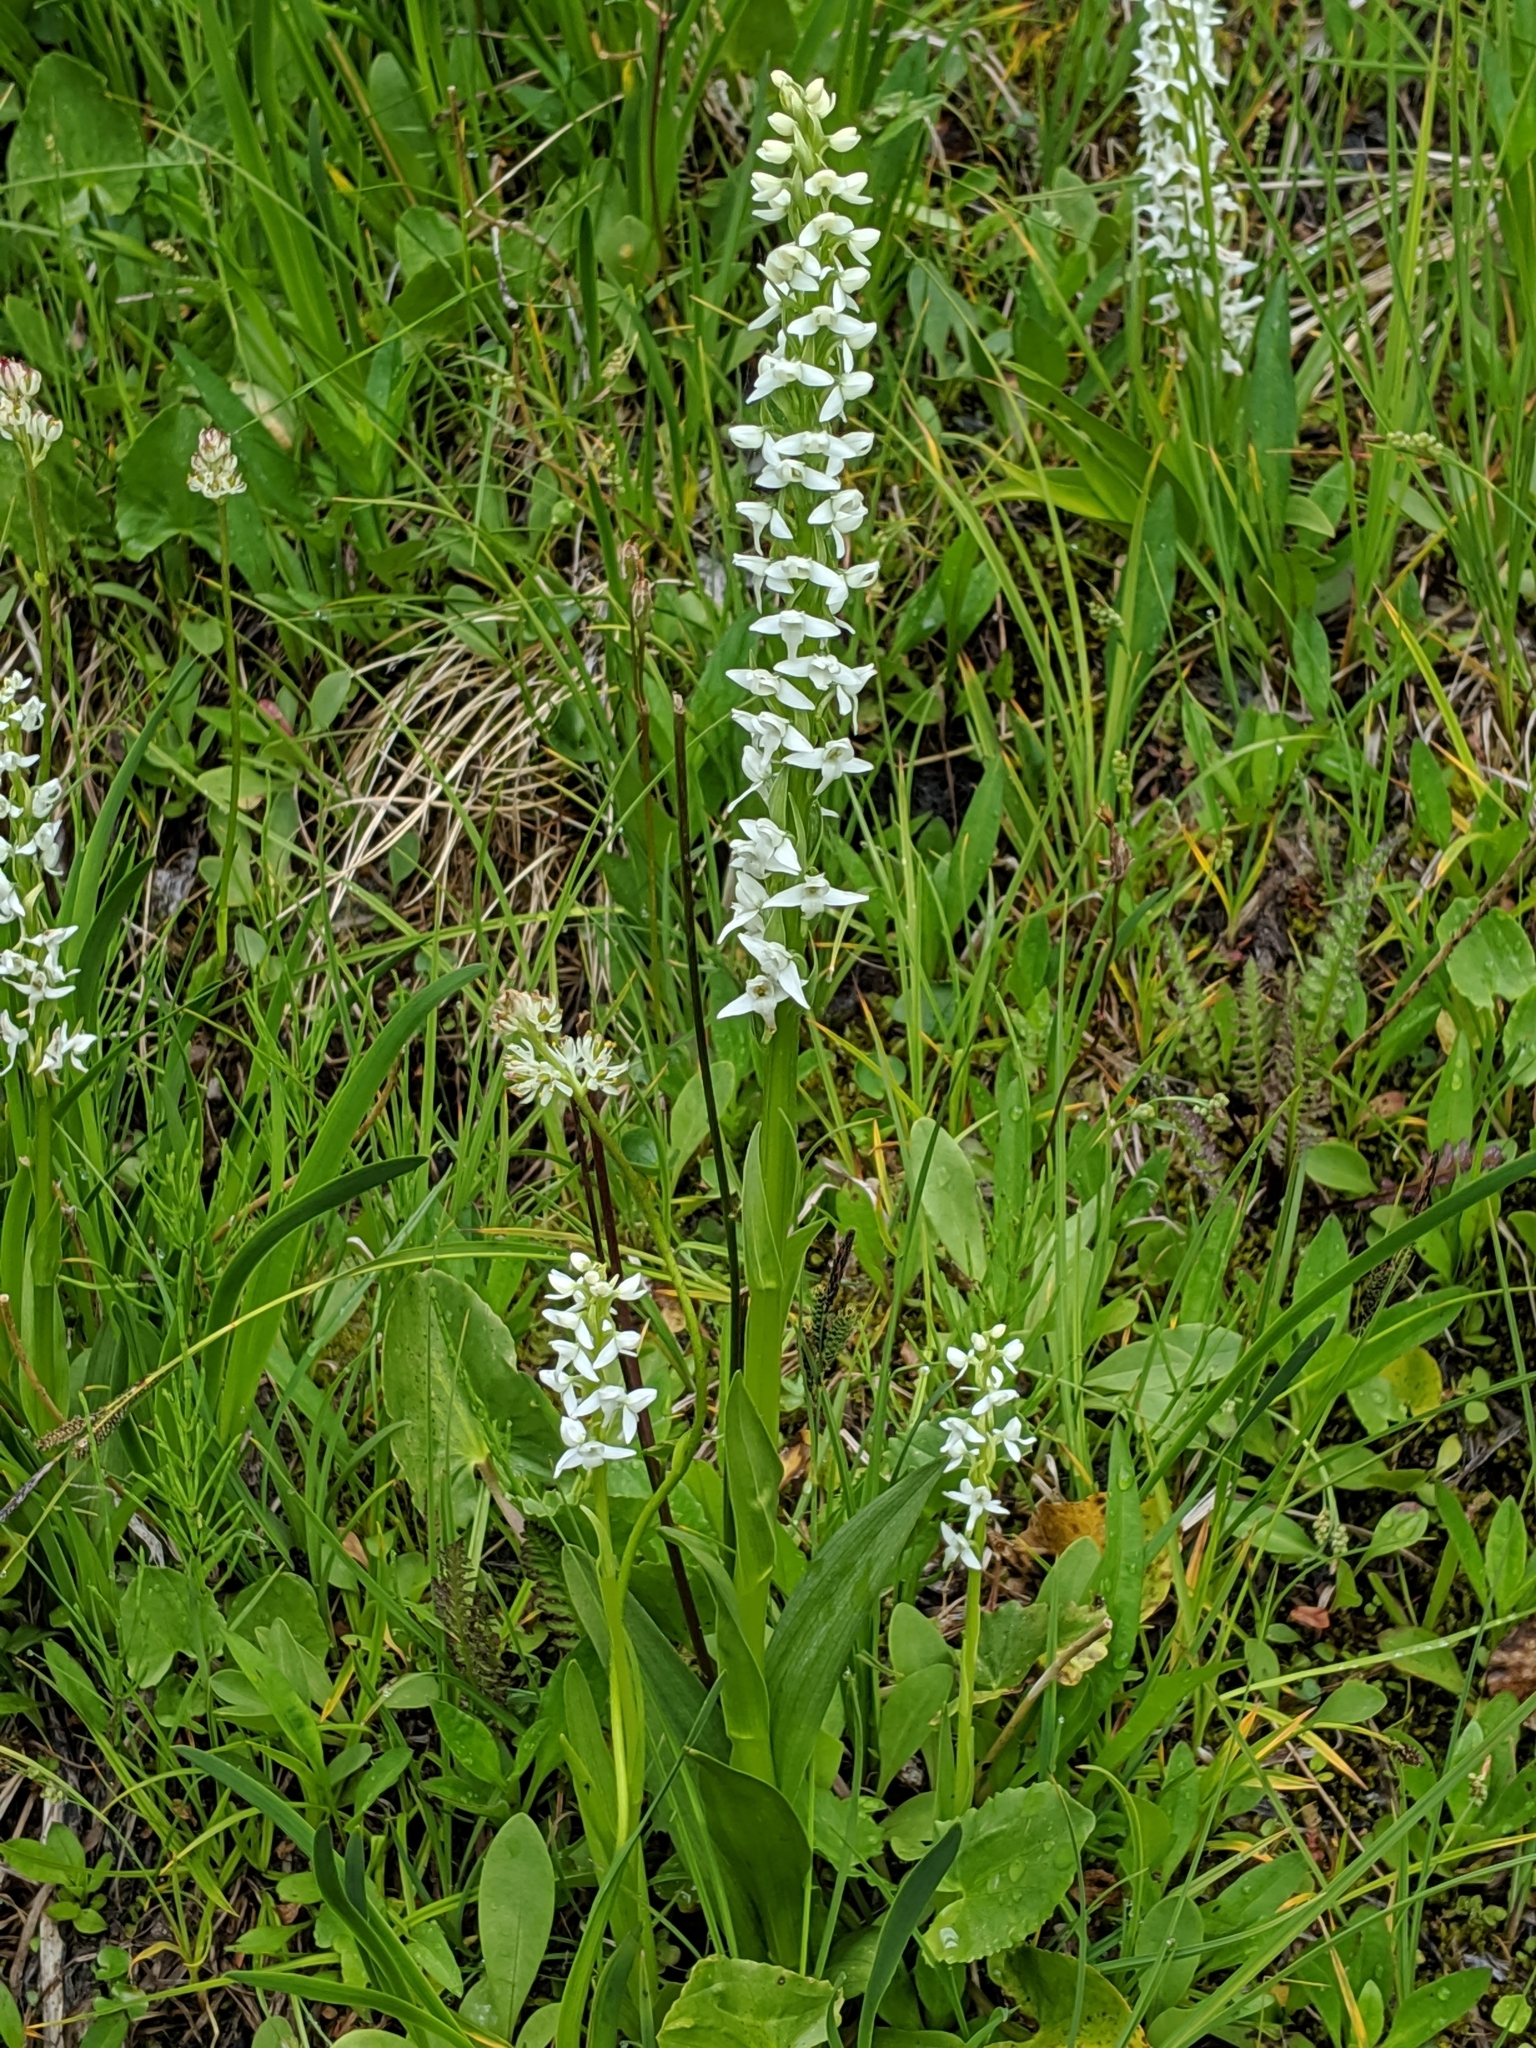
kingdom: Plantae
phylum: Tracheophyta
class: Liliopsida
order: Asparagales
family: Orchidaceae
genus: Platanthera
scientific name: Platanthera dilatata
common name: Bog candles
